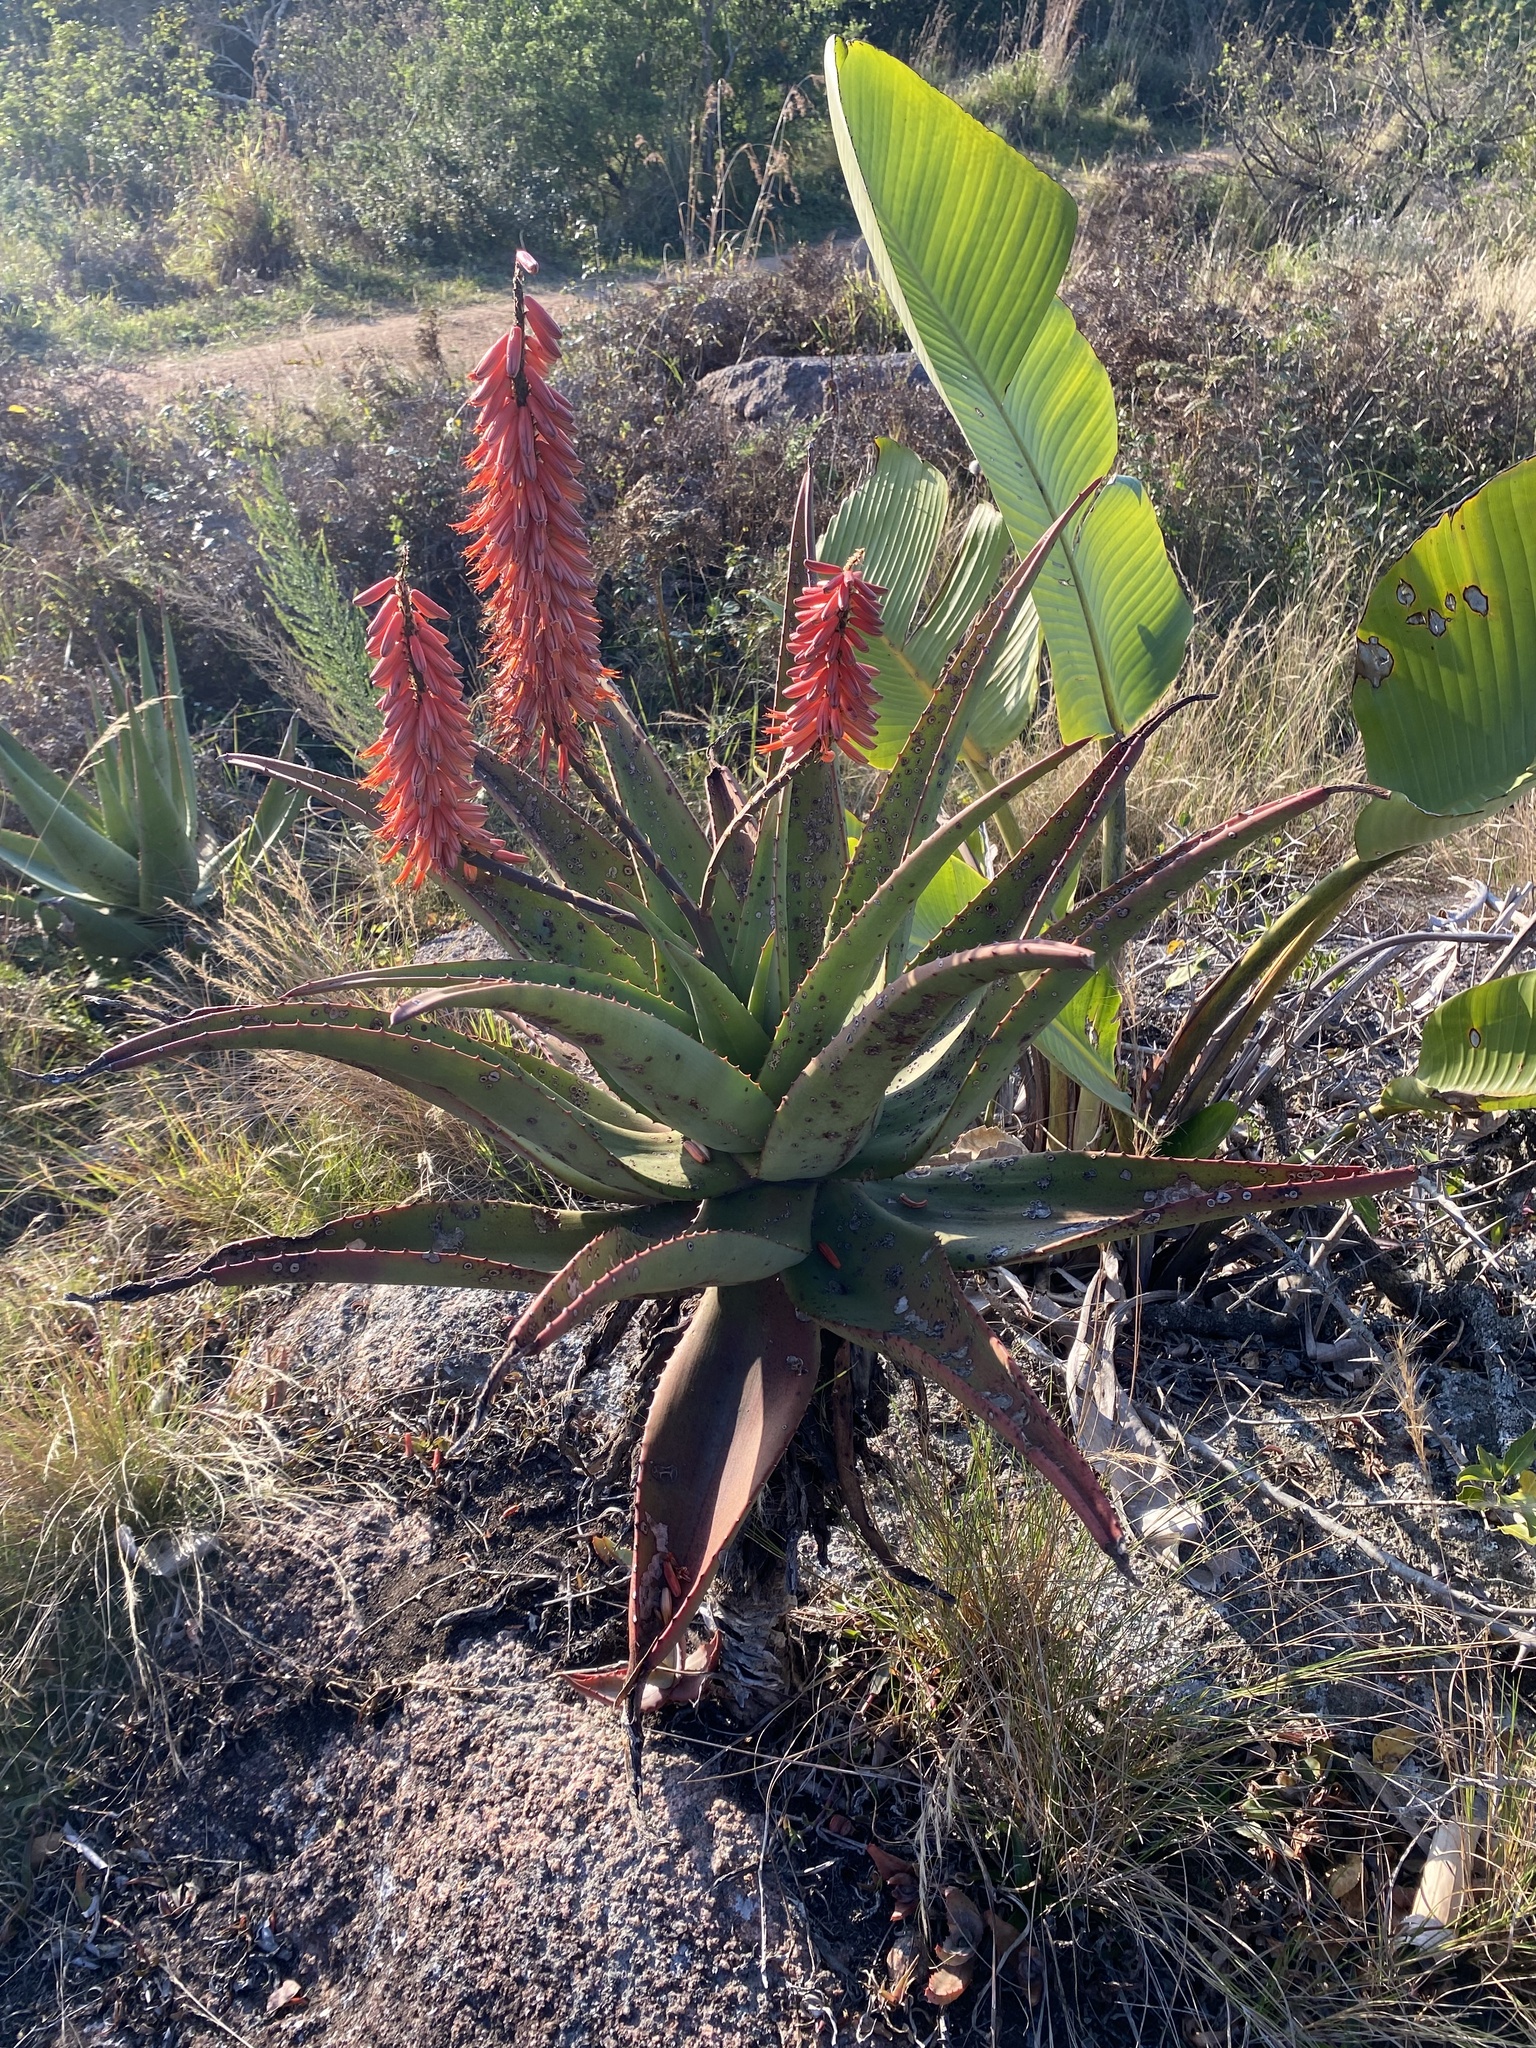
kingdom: Plantae
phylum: Tracheophyta
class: Liliopsida
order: Asparagales
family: Asphodelaceae
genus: Aloe
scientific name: Aloe candelabrum
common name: Candelabra aloe
